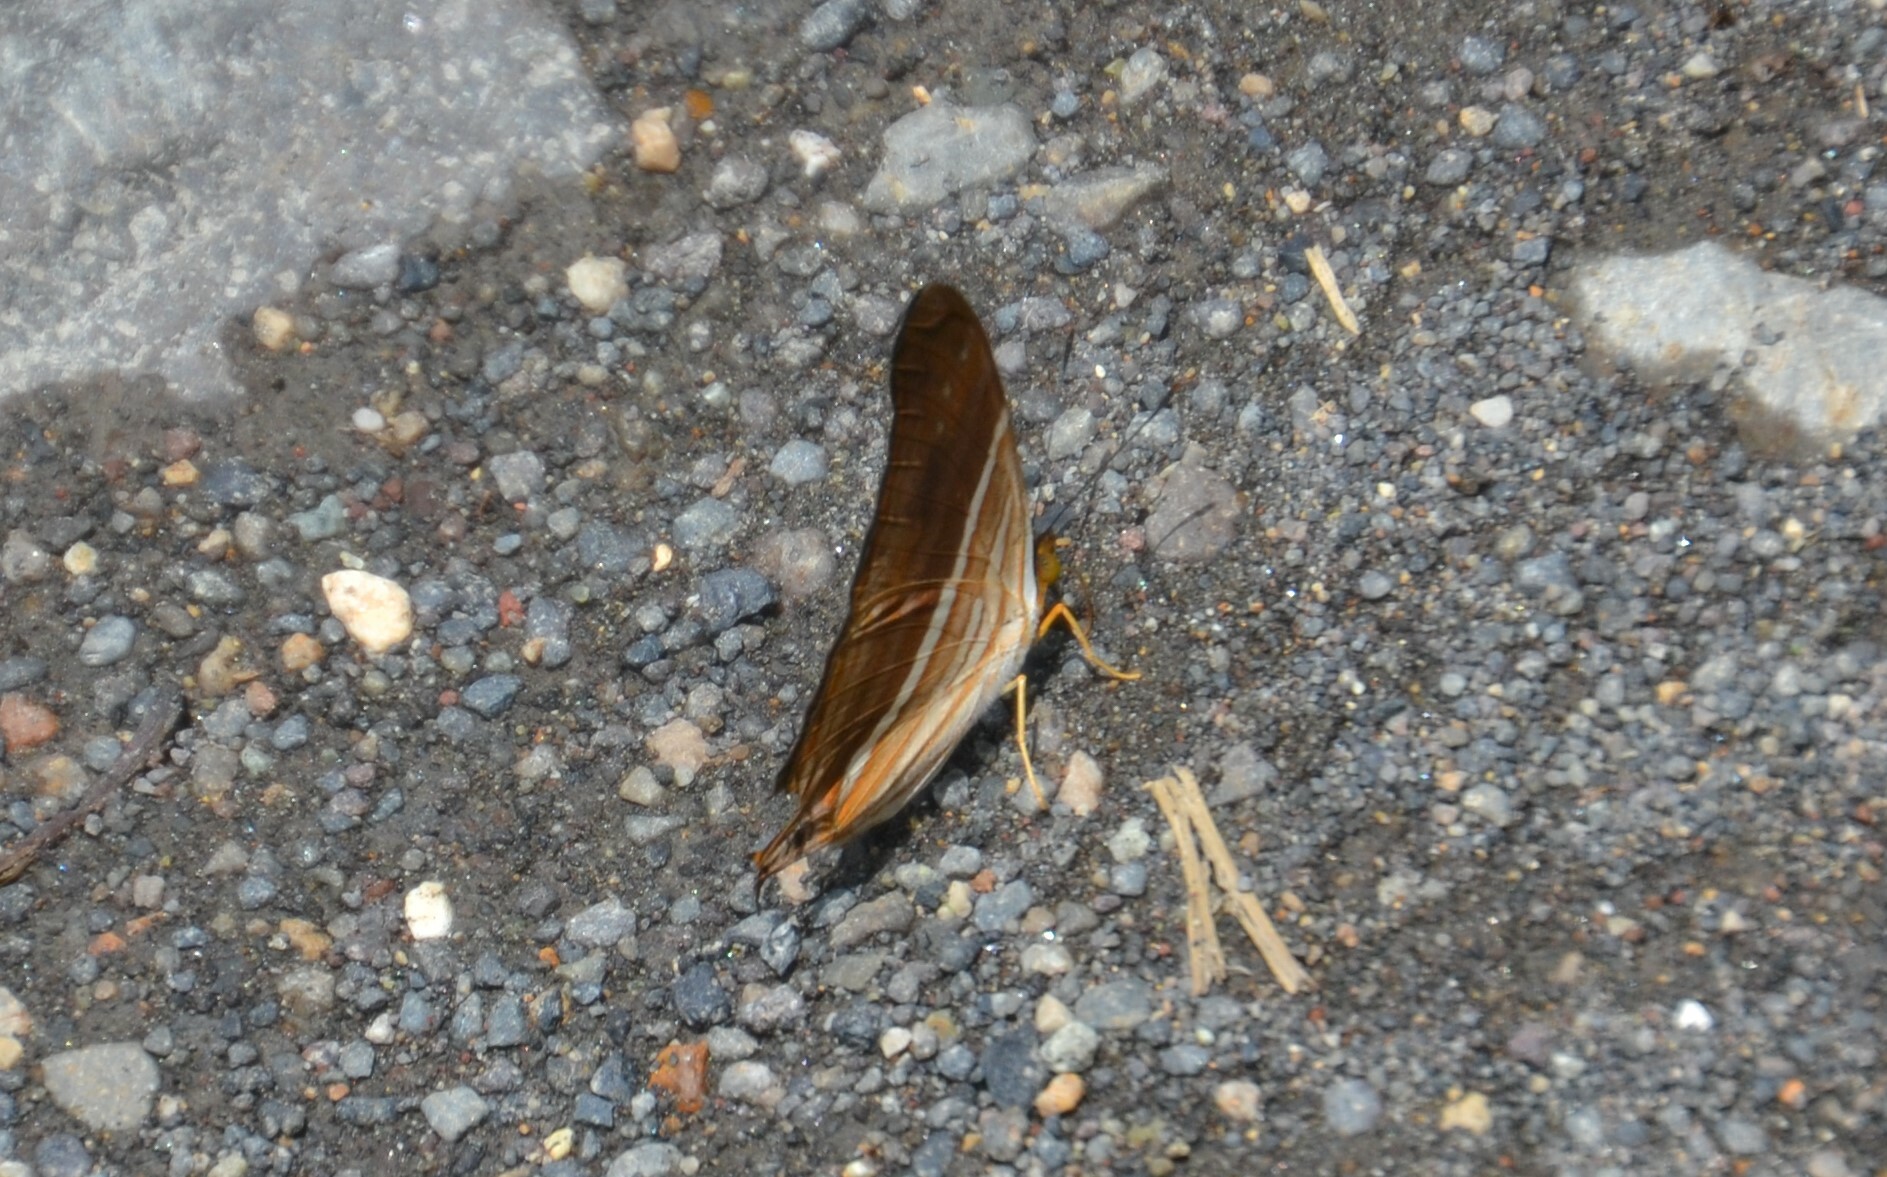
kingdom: Animalia
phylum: Arthropoda
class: Insecta
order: Lepidoptera
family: Nymphalidae
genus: Marpesia
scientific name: Marpesia chiron
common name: Many-banded daggerwing
